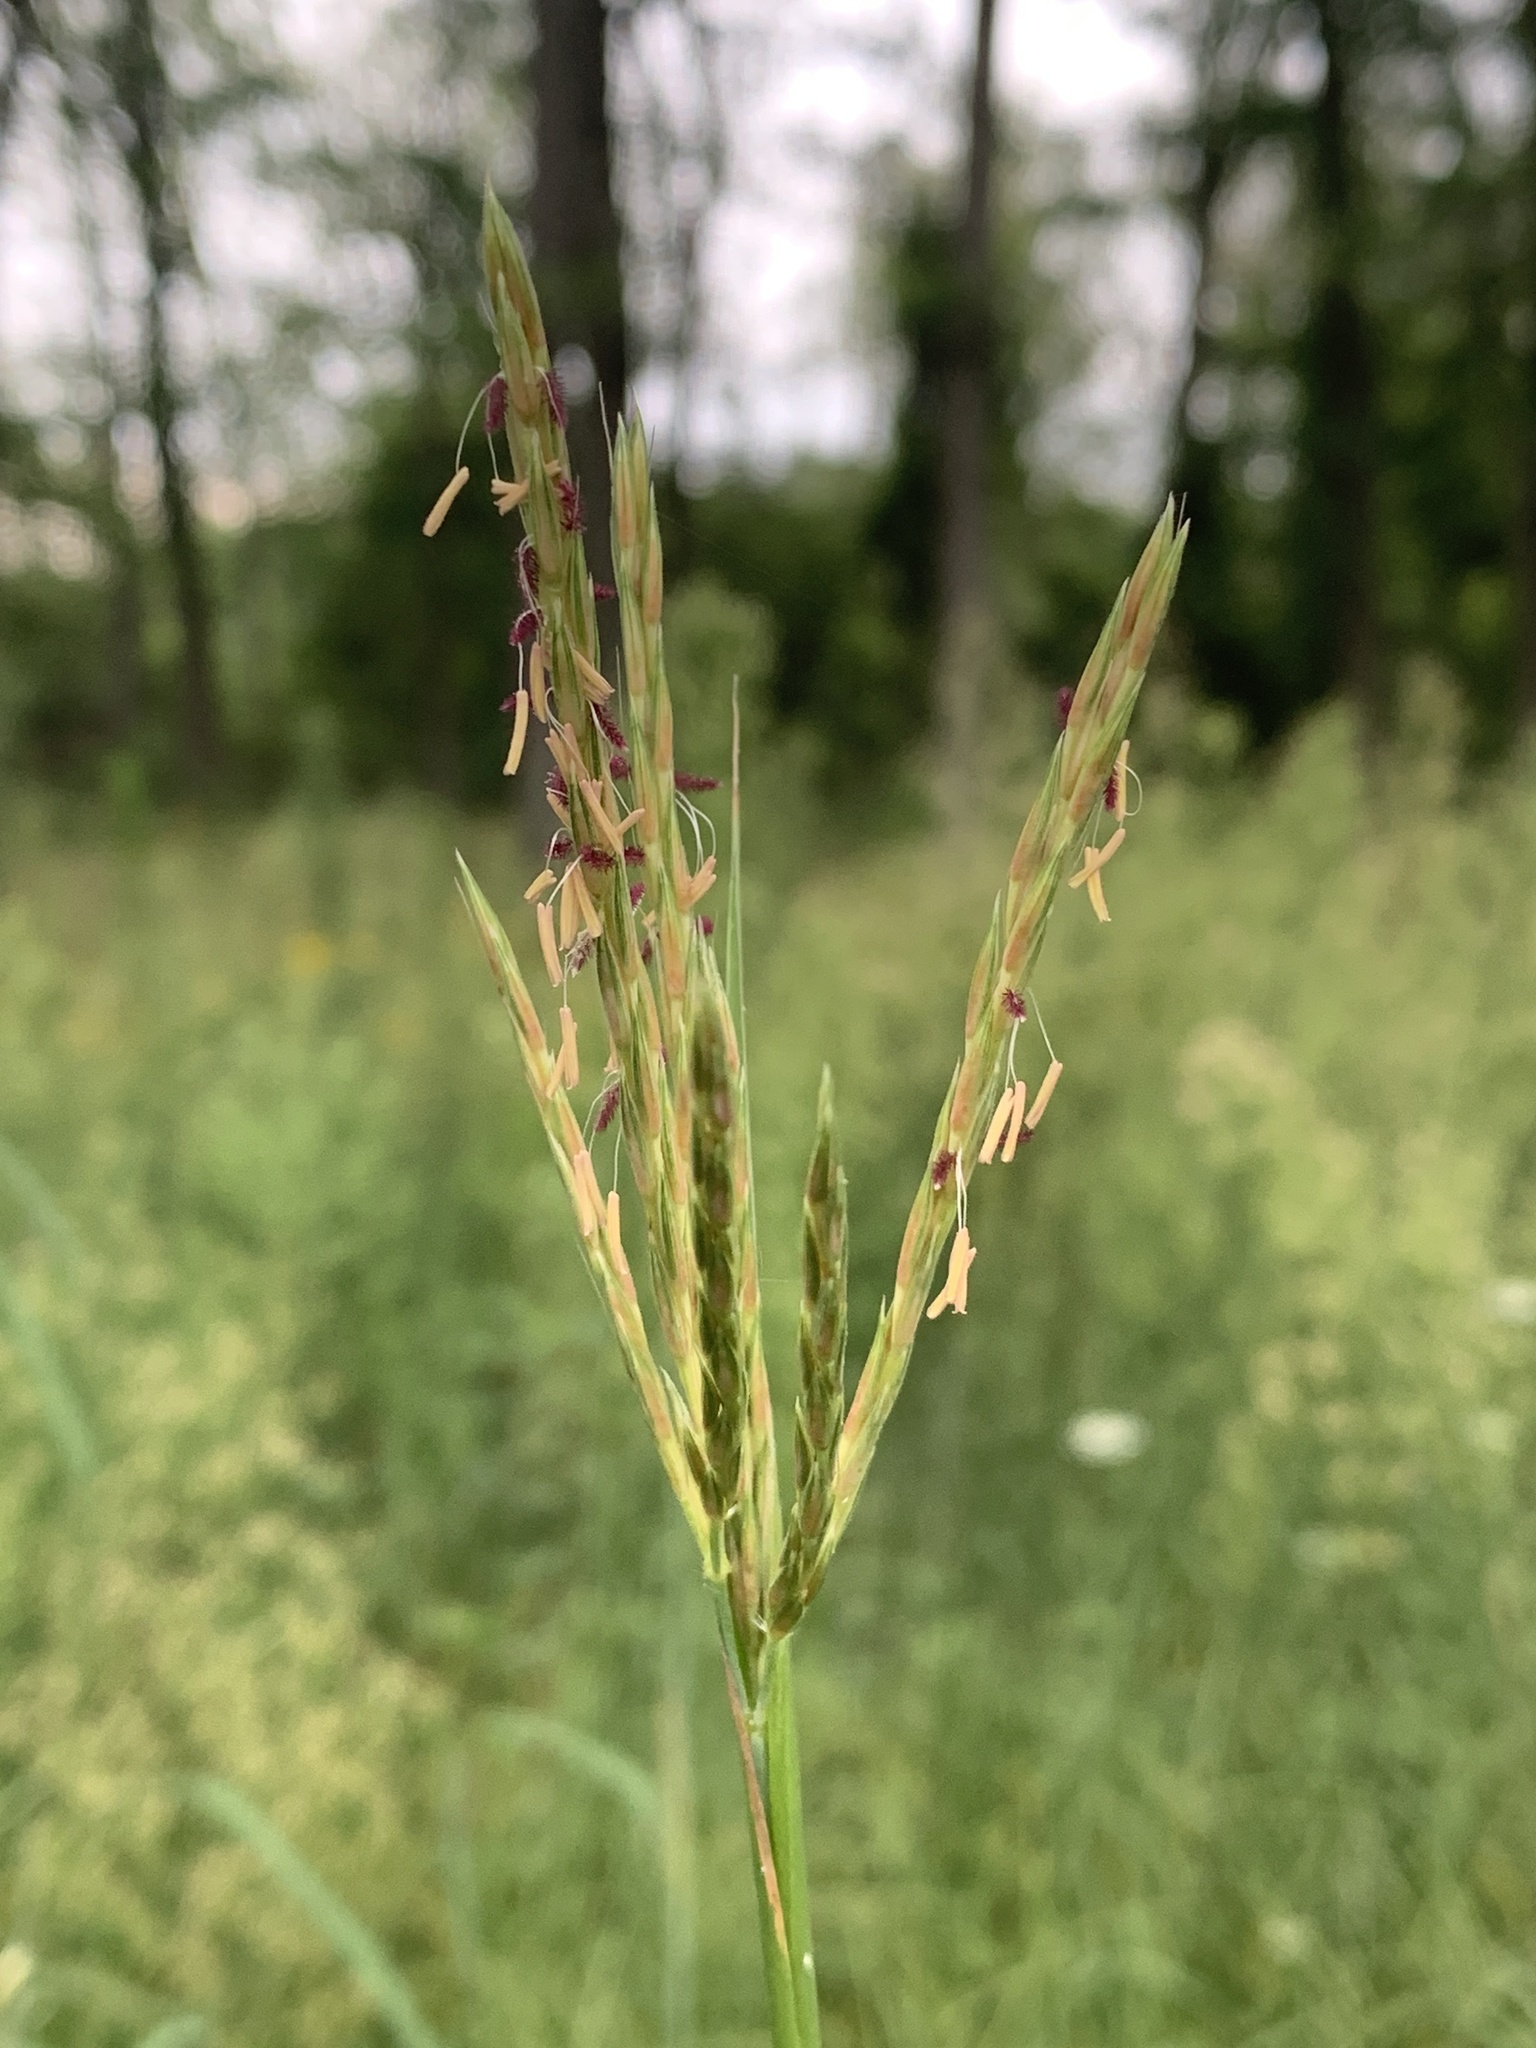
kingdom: Plantae
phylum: Tracheophyta
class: Liliopsida
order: Poales
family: Poaceae
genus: Andropogon
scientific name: Andropogon gerardi
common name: Big bluestem
